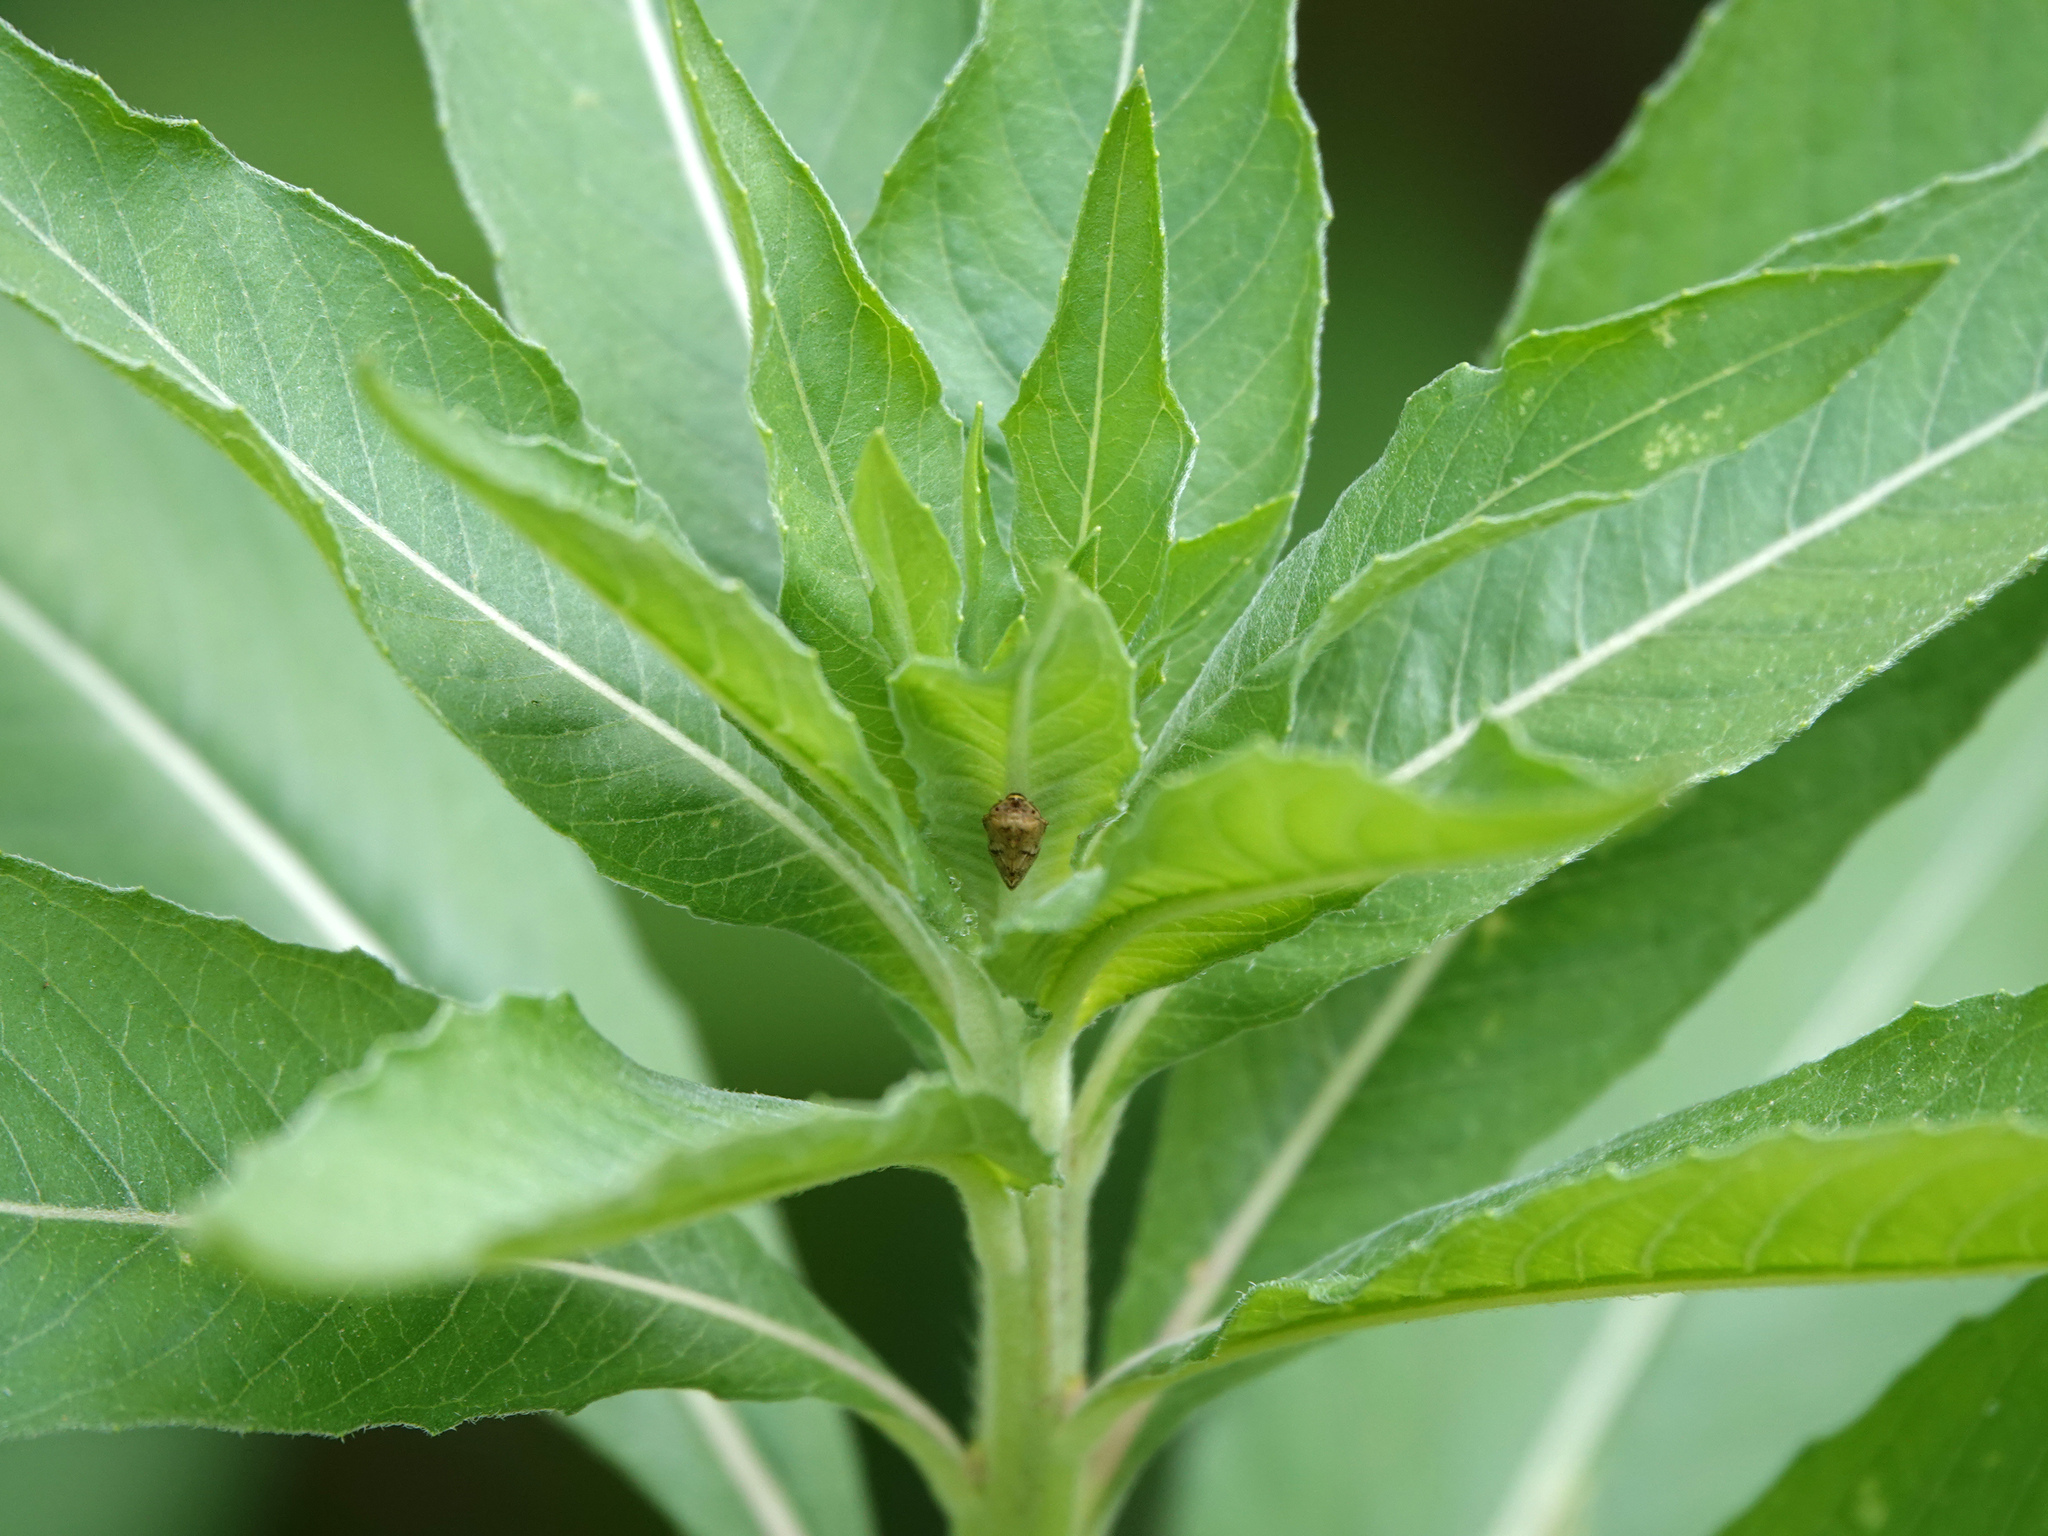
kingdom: Animalia
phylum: Arthropoda
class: Insecta
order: Hemiptera
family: Aphrophoridae
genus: Philaenus
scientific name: Philaenus spumarius
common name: Meadow spittlebug
